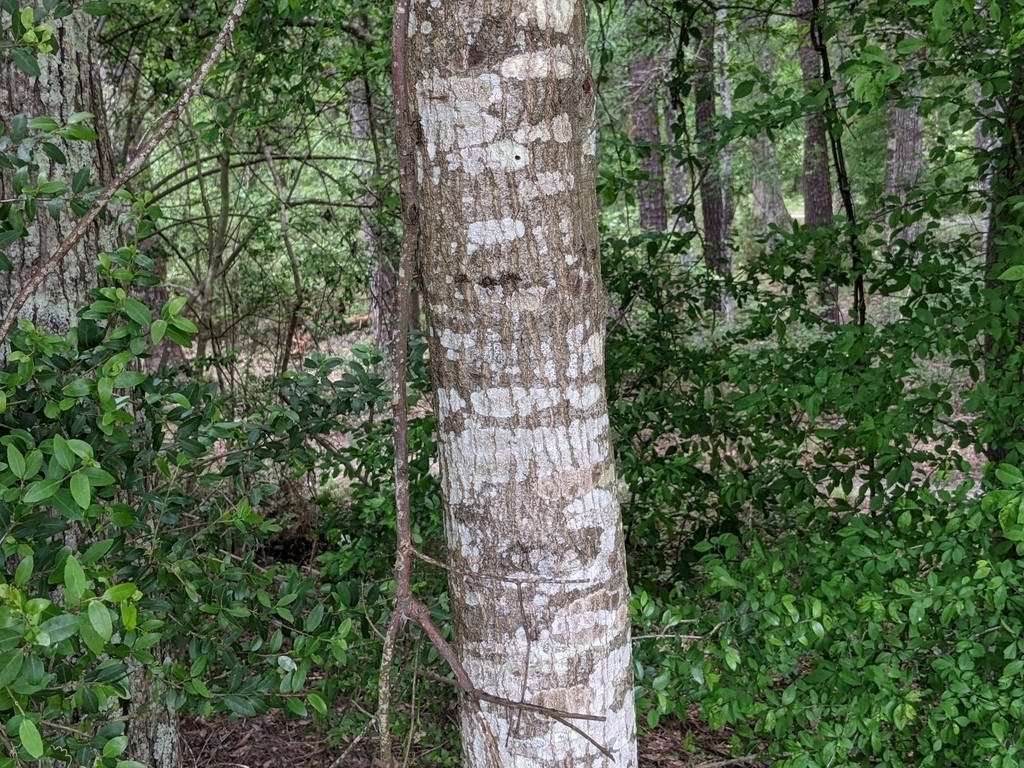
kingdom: Plantae
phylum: Tracheophyta
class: Magnoliopsida
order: Fagales
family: Fagaceae
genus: Quercus
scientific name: Quercus nigra
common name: Water oak
